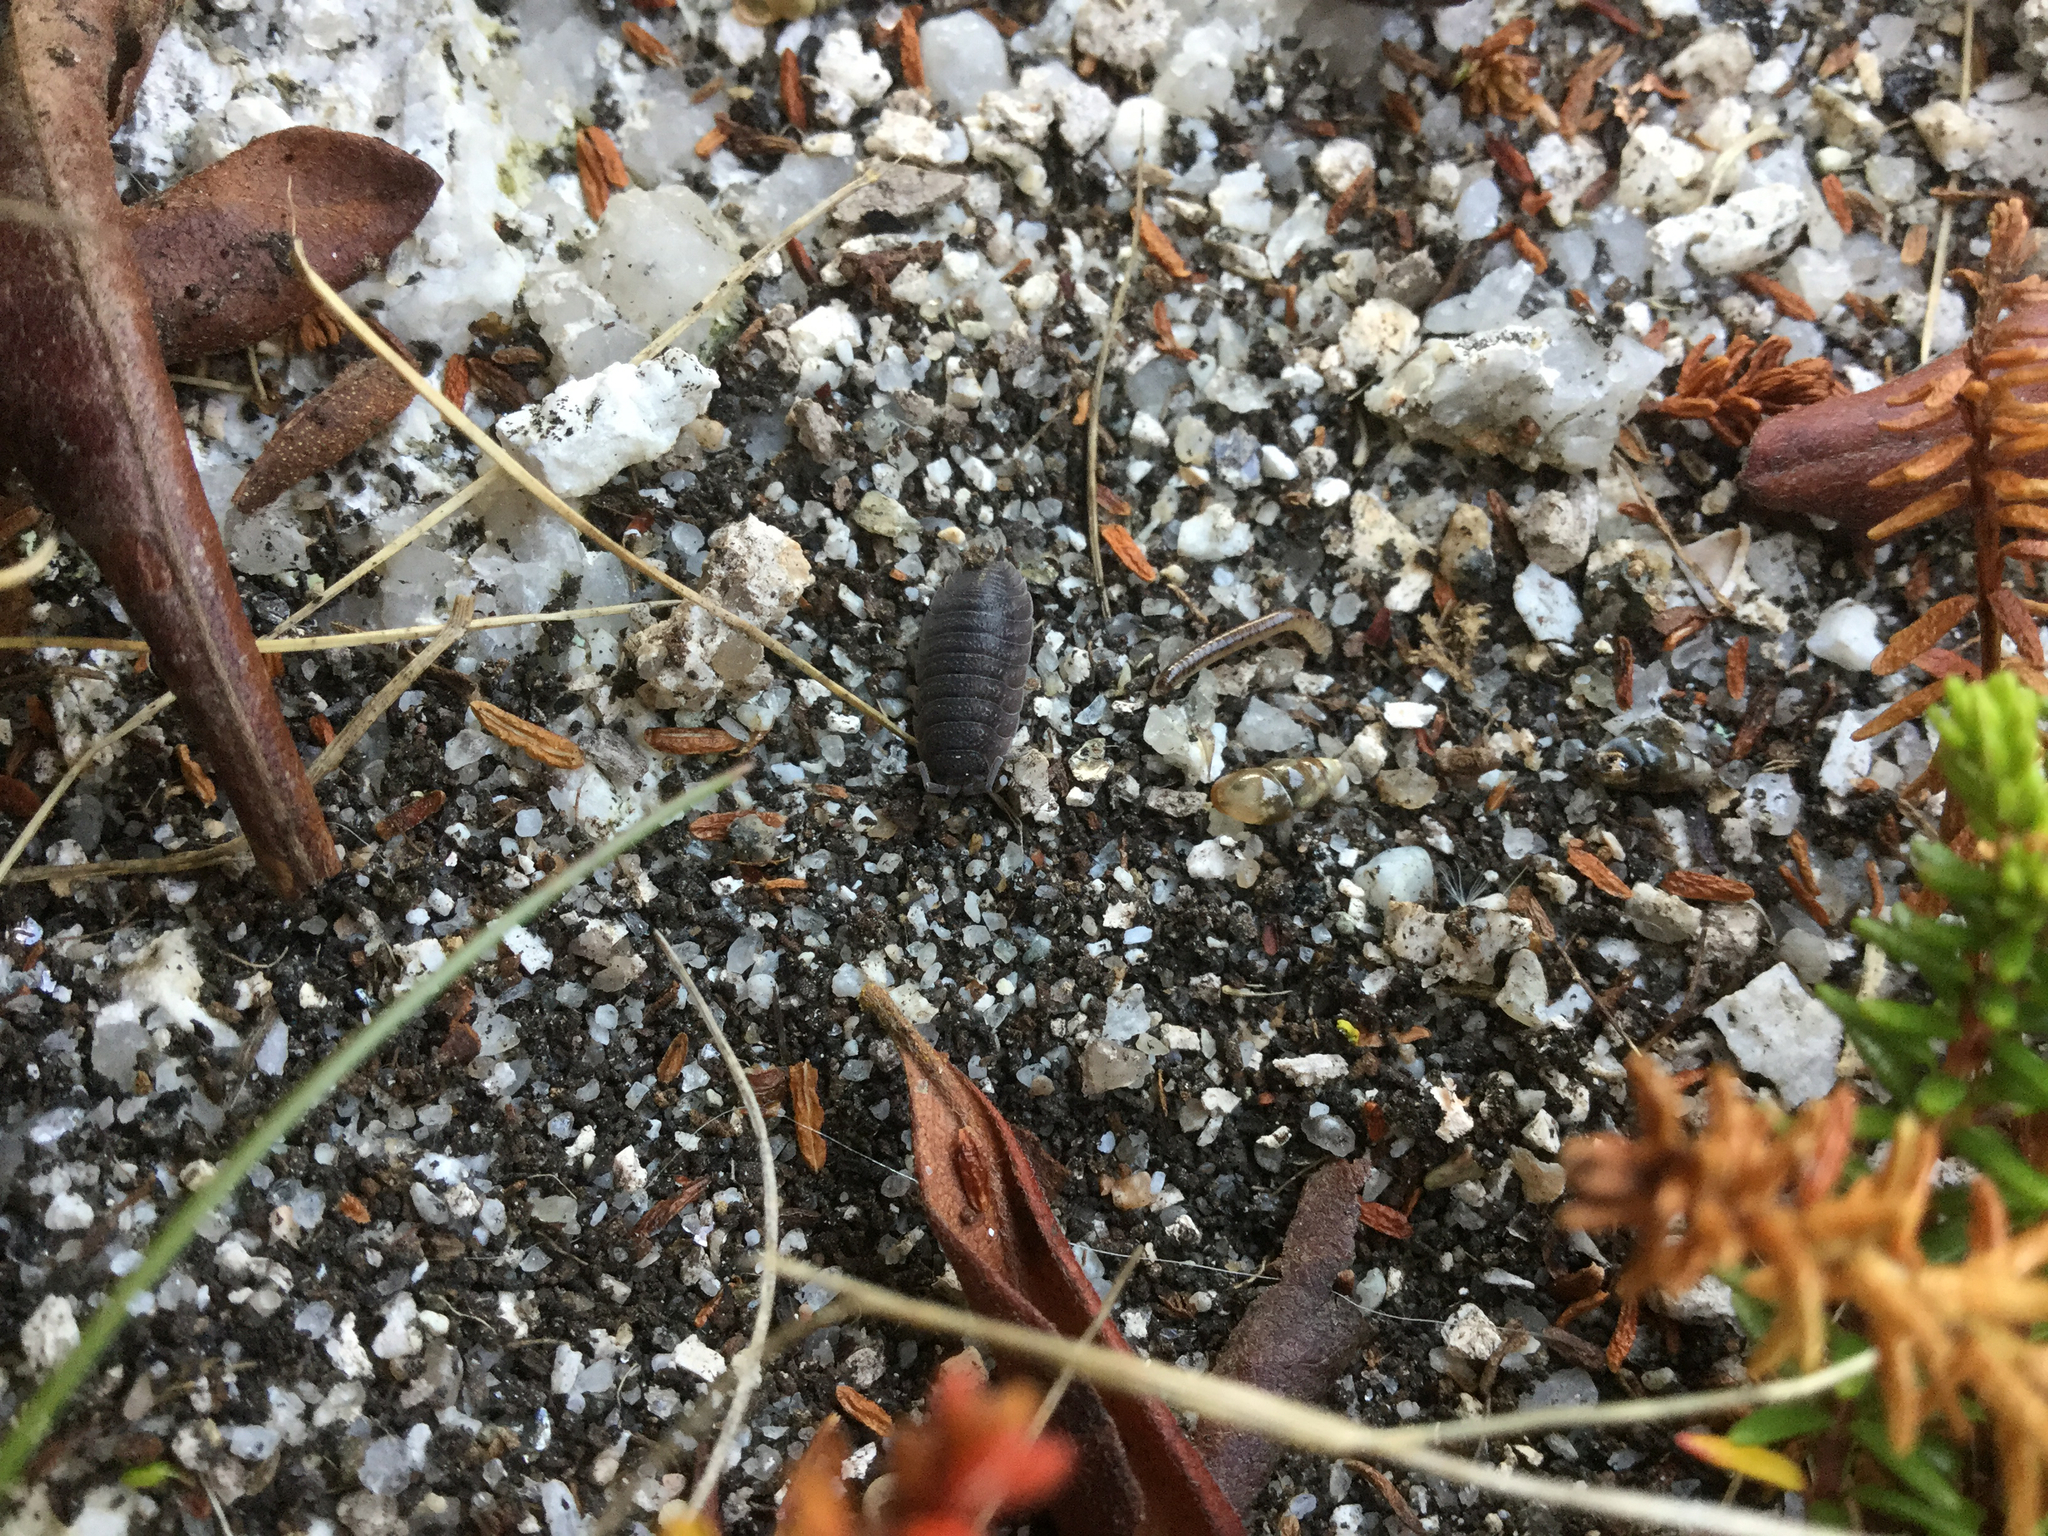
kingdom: Animalia
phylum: Arthropoda
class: Malacostraca
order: Isopoda
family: Porcellionidae
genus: Porcellio
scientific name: Porcellio scaber
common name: Common rough woodlouse
